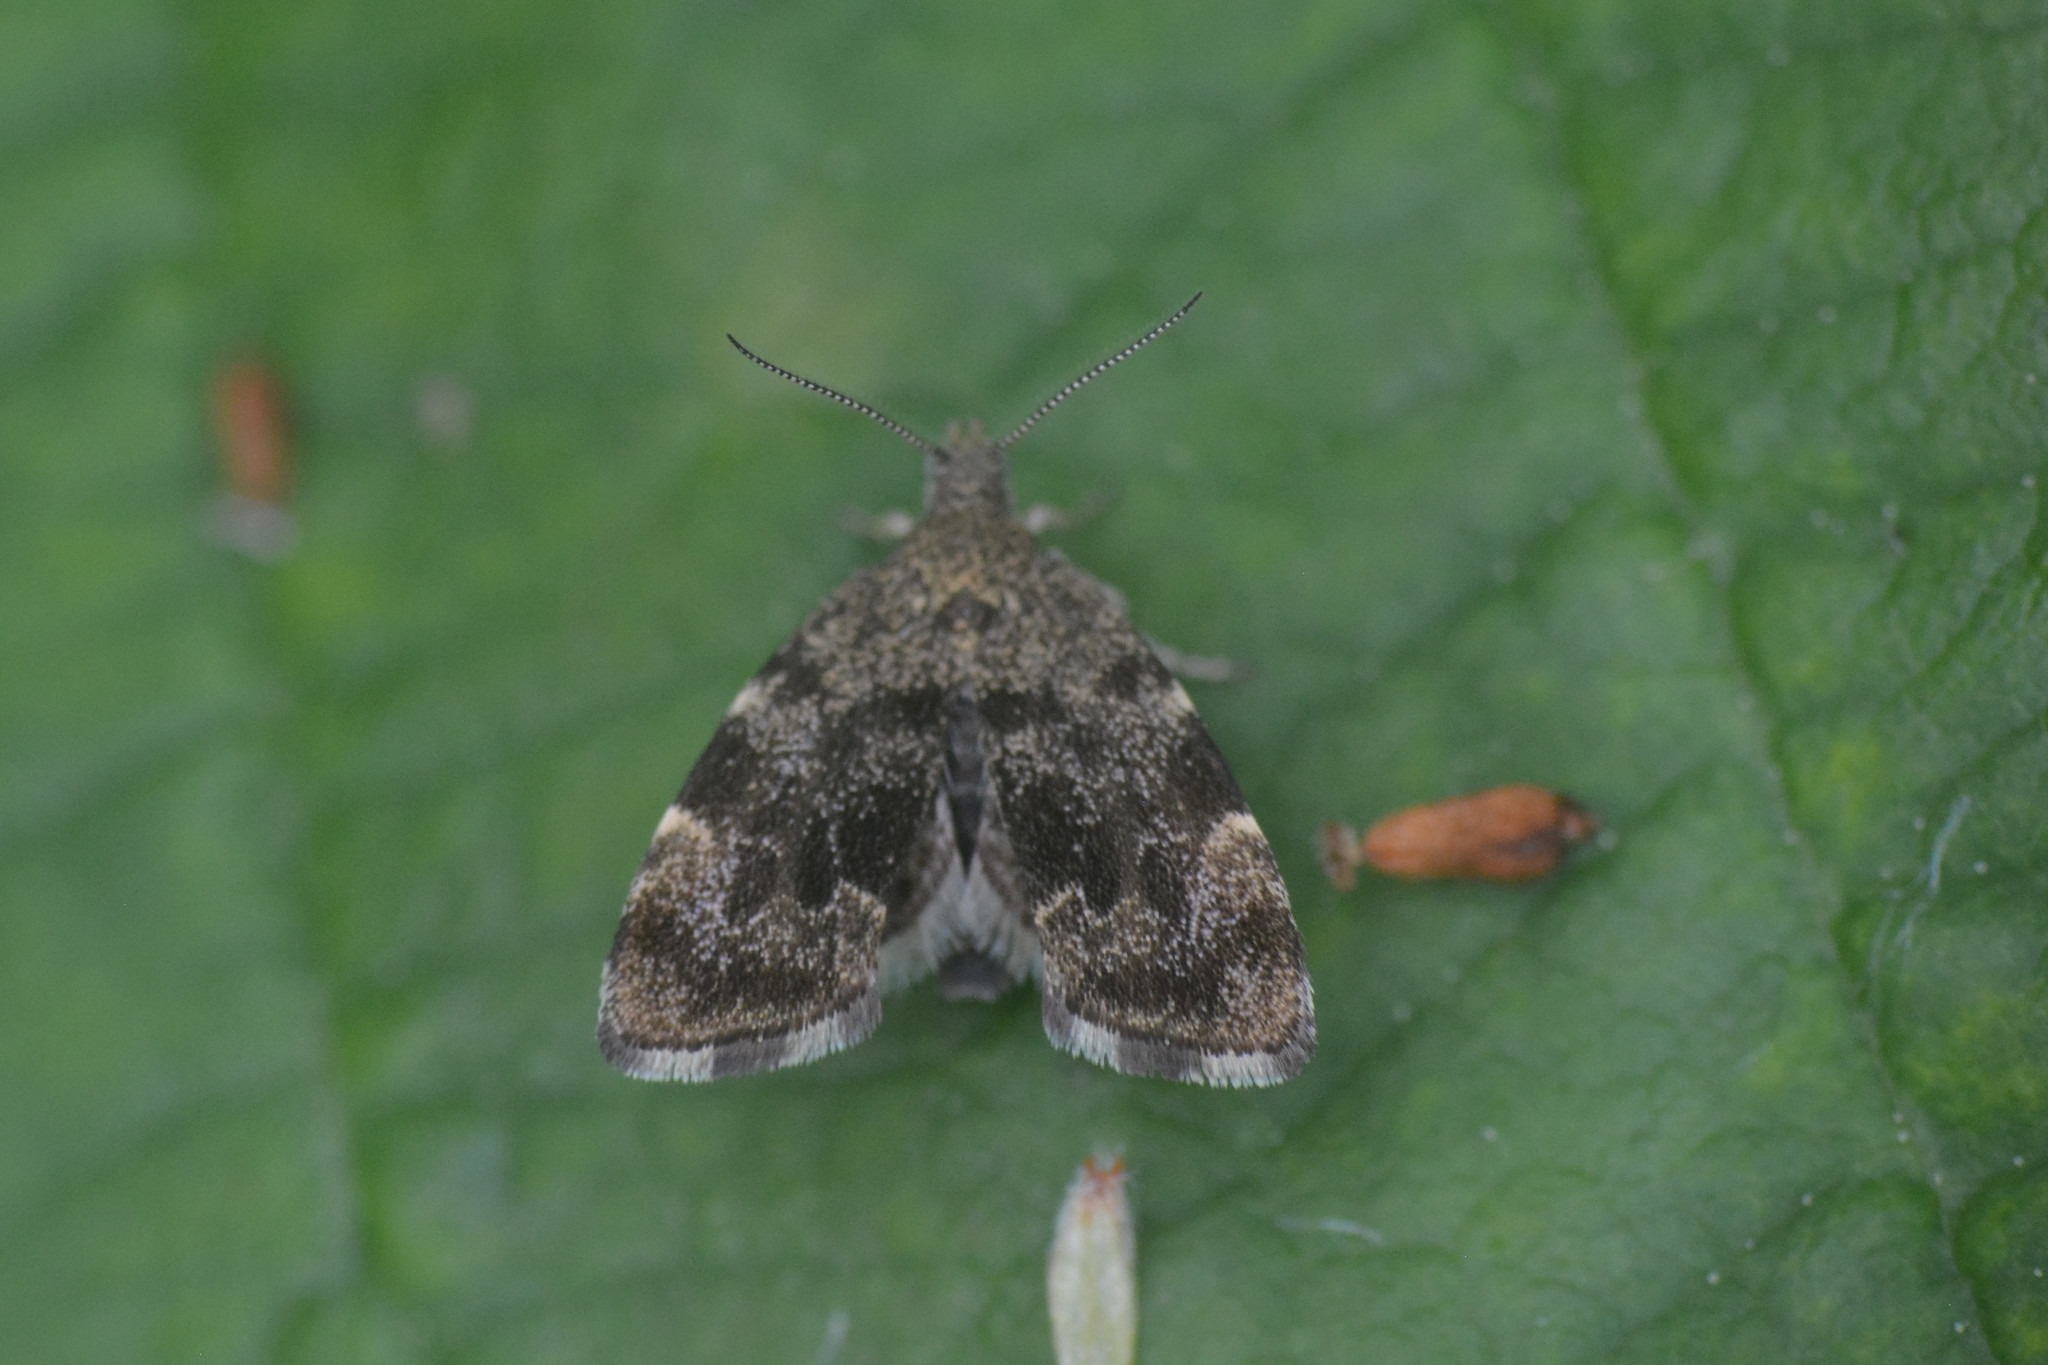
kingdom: Animalia
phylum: Arthropoda
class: Insecta
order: Lepidoptera
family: Choreutidae
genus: Anthophila
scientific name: Anthophila fabriciana
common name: Nettle-tap
